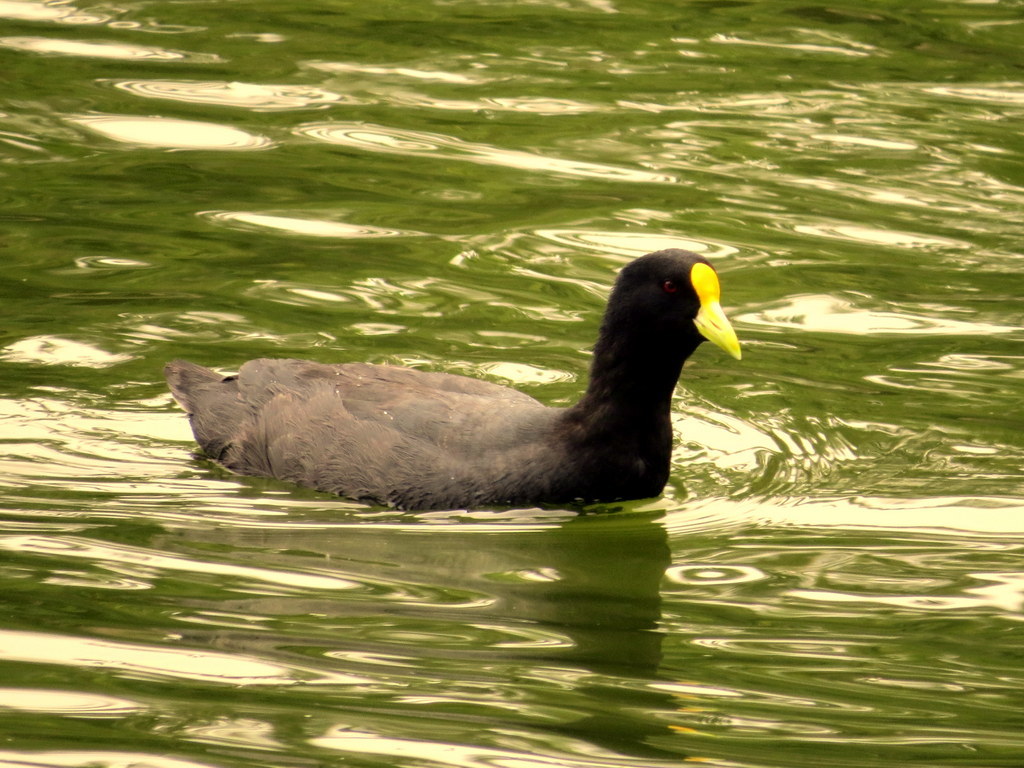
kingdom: Animalia
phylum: Chordata
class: Aves
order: Gruiformes
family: Rallidae
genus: Fulica
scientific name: Fulica leucoptera
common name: White-winged coot
